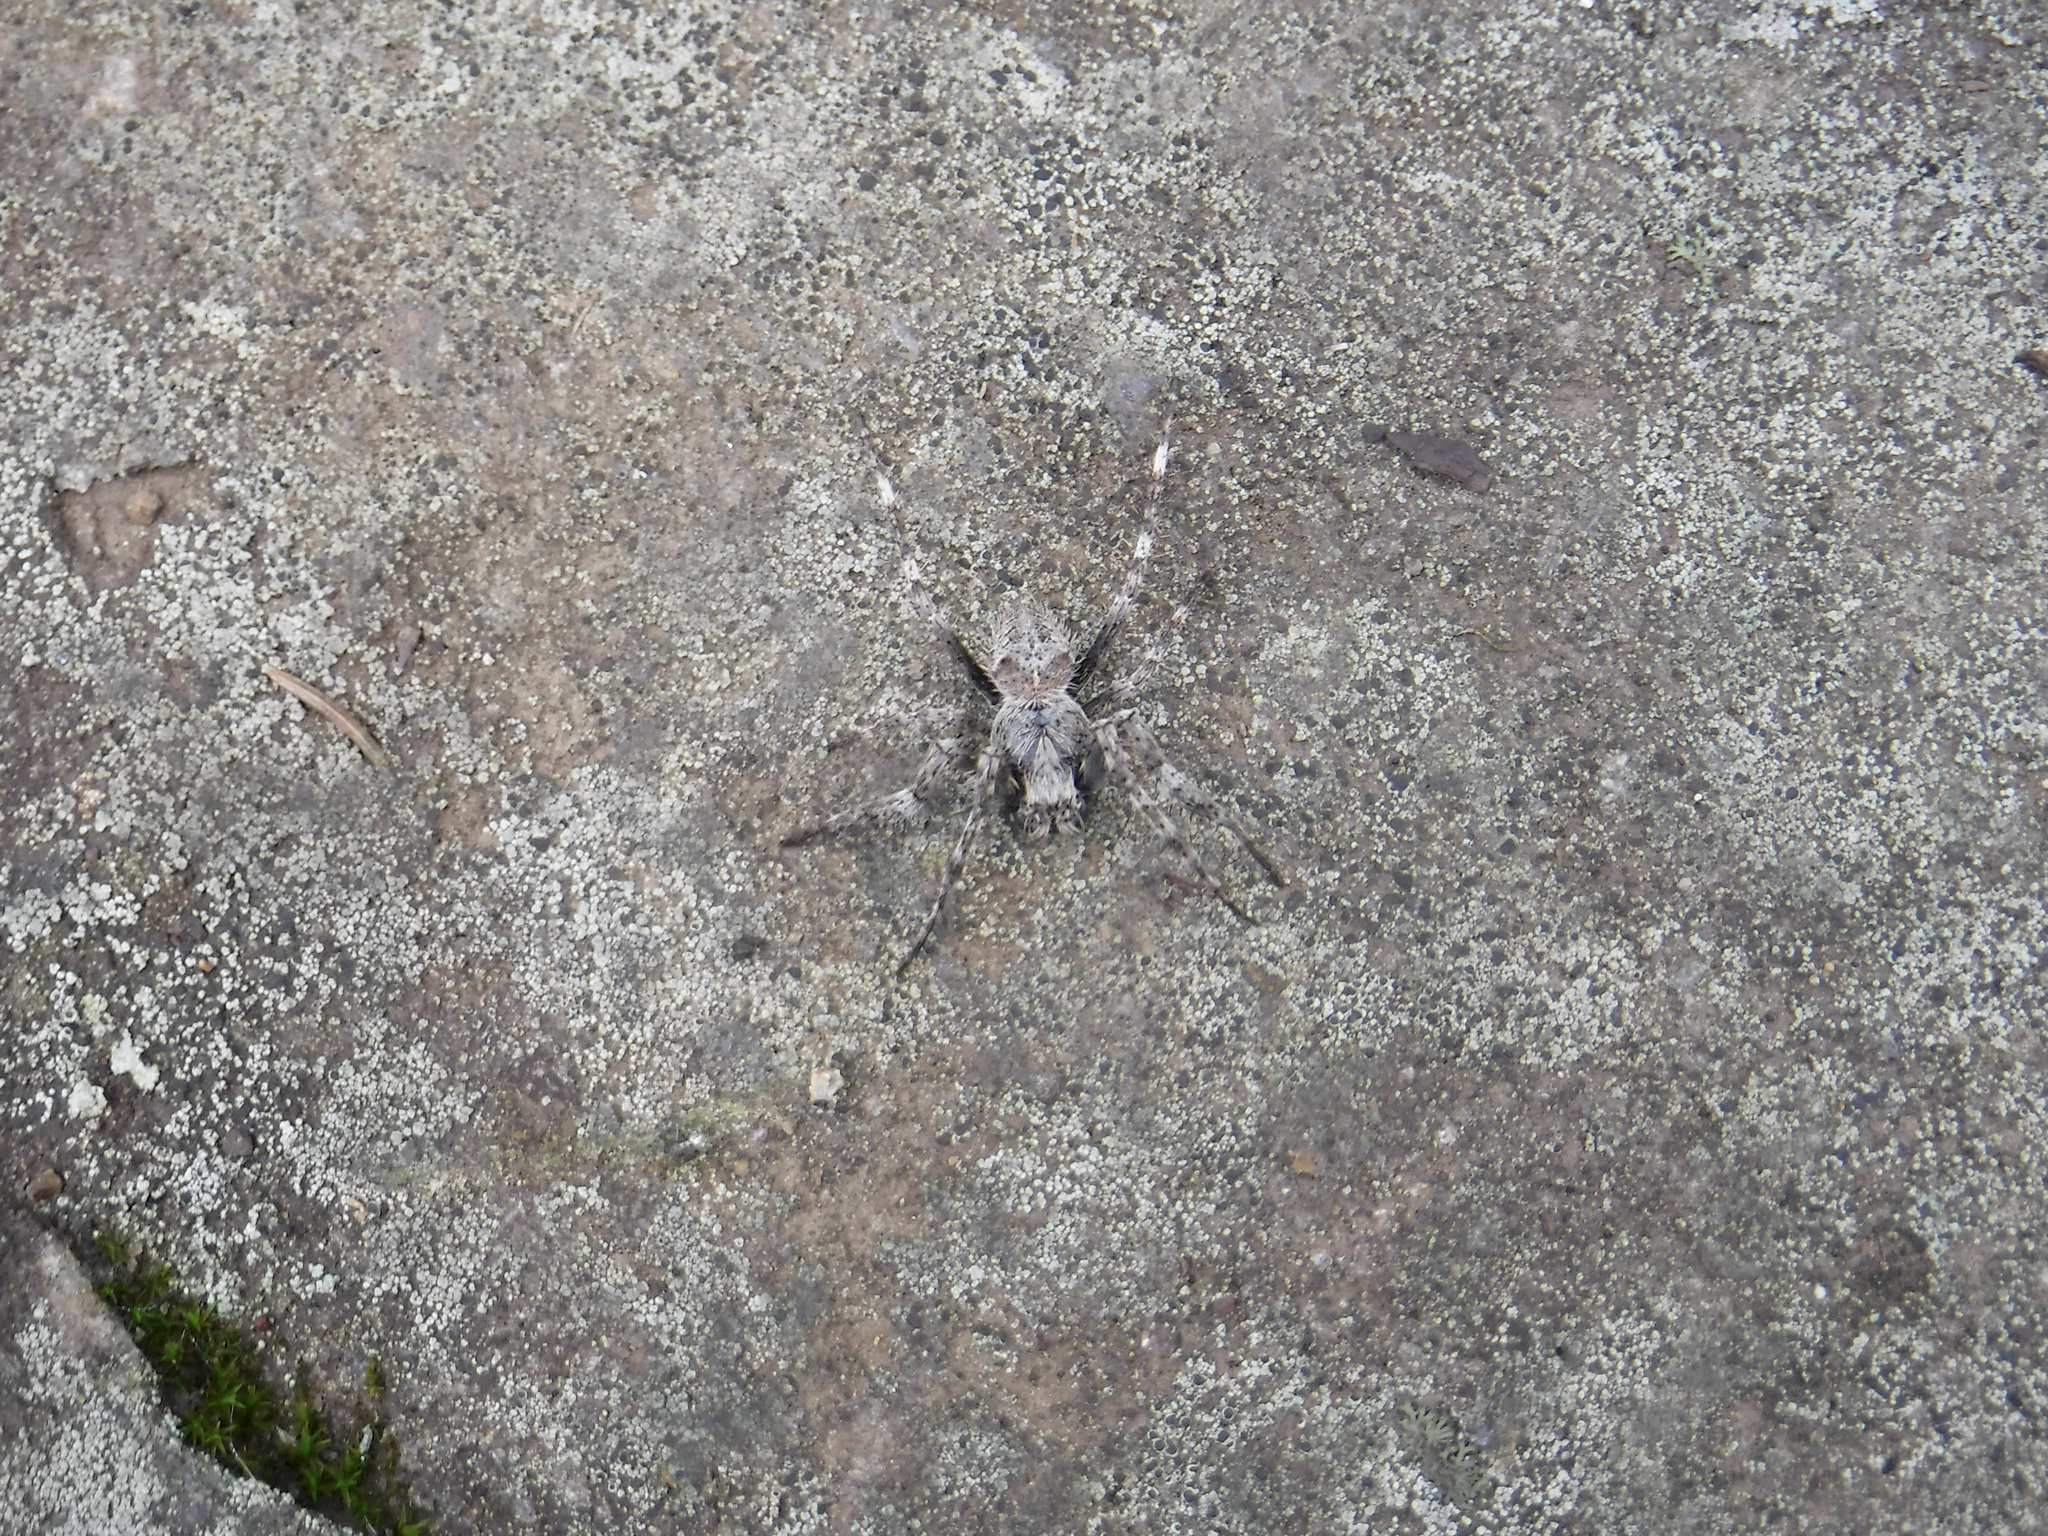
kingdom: Animalia
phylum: Arthropoda
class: Arachnida
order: Araneae
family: Araneidae
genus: Araneus
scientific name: Araneus saevus
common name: Fierce orbweaver
